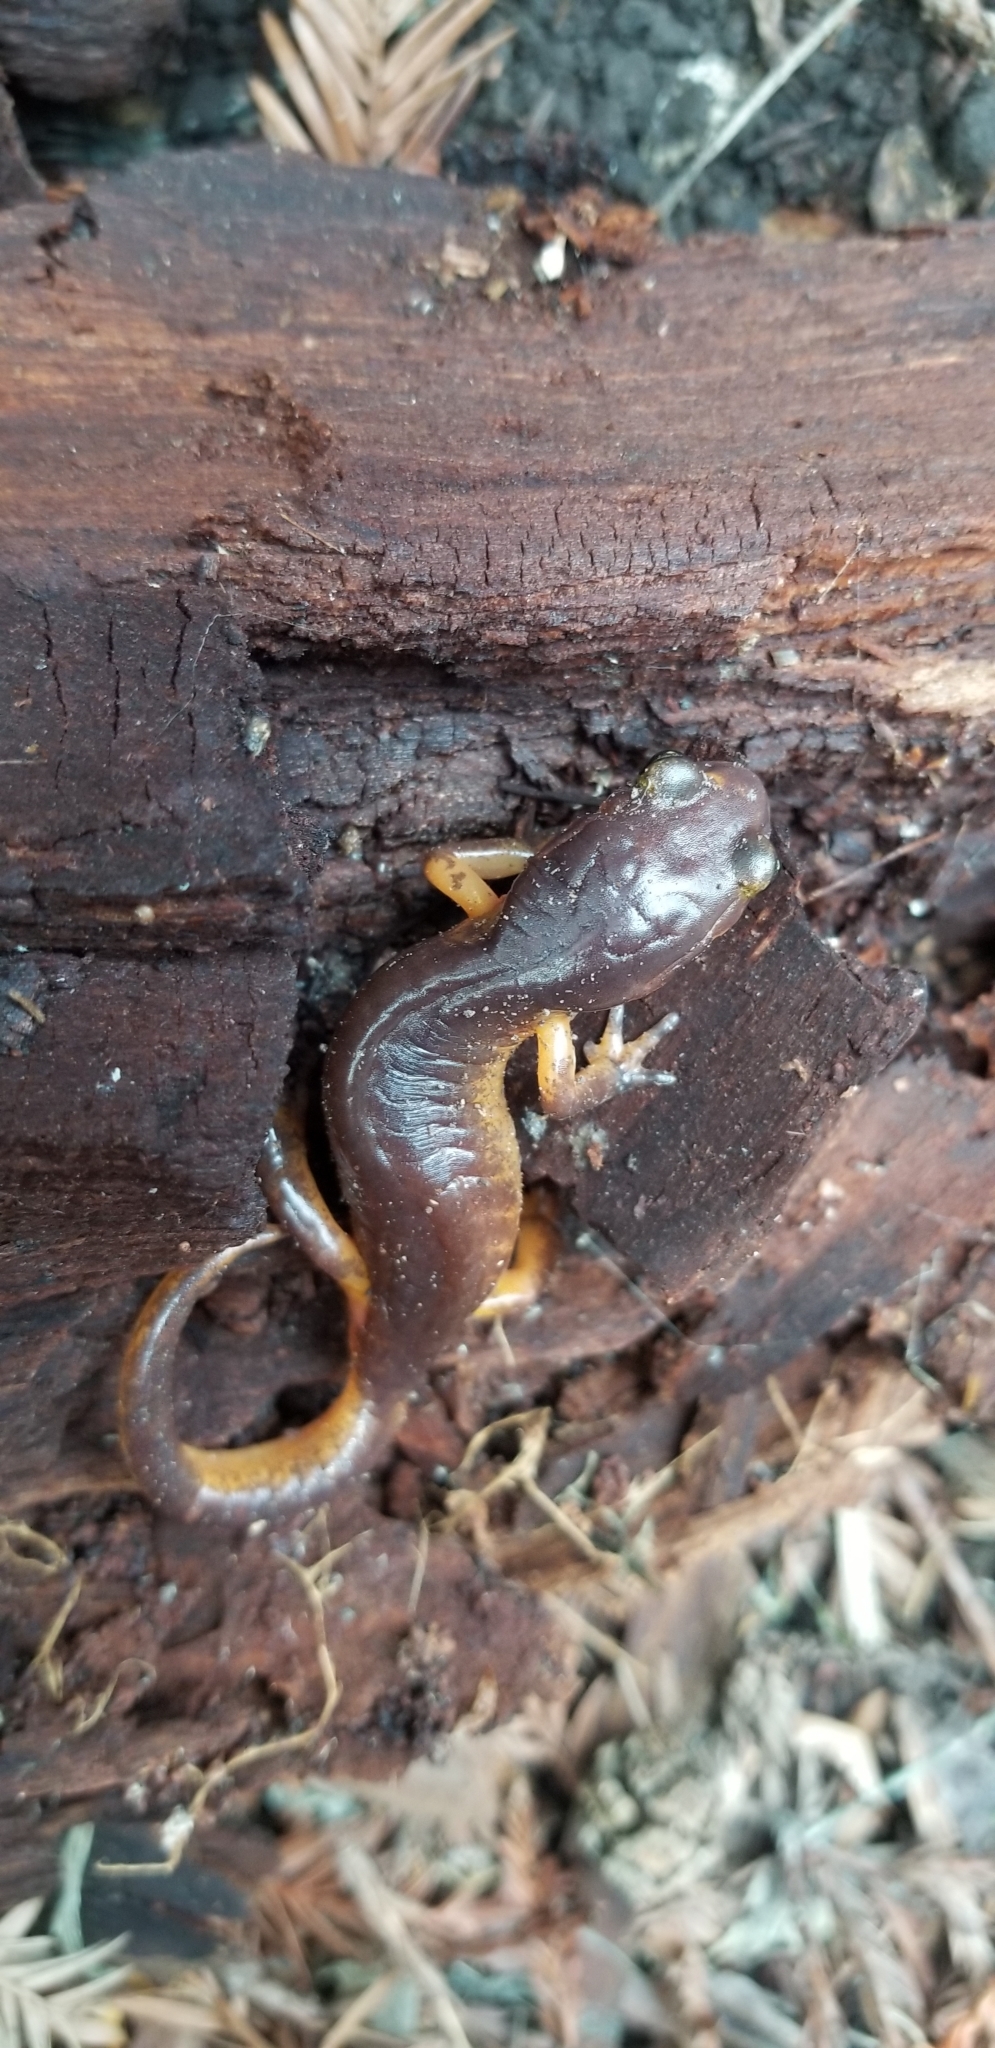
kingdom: Animalia
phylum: Chordata
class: Amphibia
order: Caudata
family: Plethodontidae
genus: Ensatina
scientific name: Ensatina eschscholtzii
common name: Ensatina
